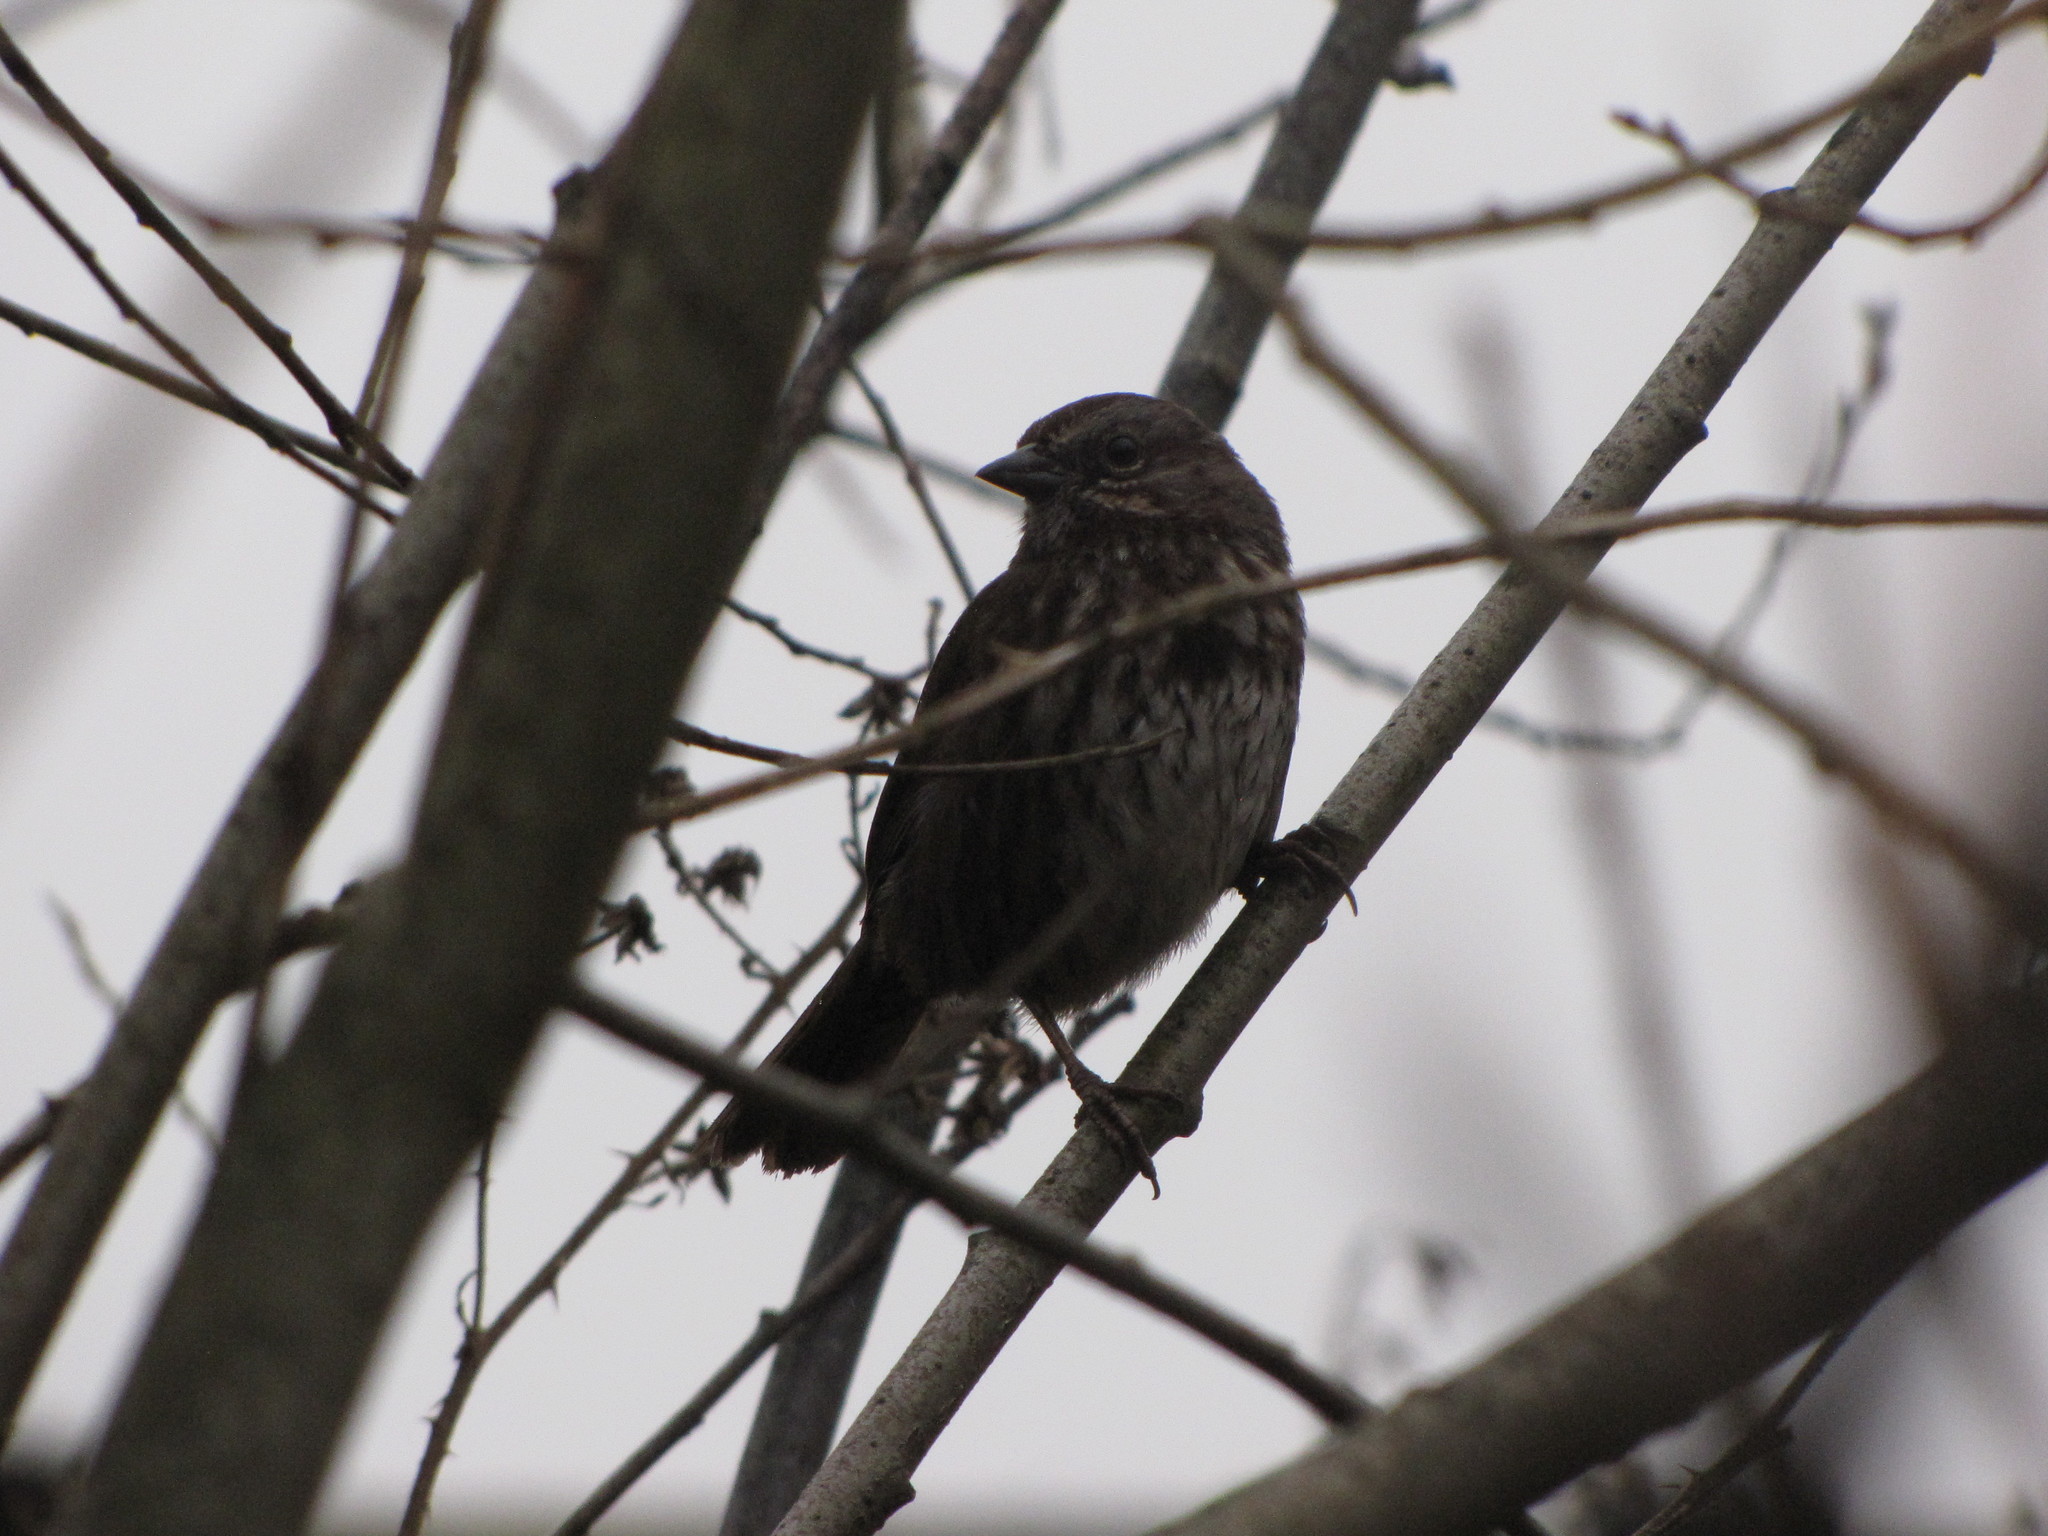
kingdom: Animalia
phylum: Chordata
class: Aves
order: Passeriformes
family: Passerellidae
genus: Melospiza
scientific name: Melospiza melodia
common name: Song sparrow
